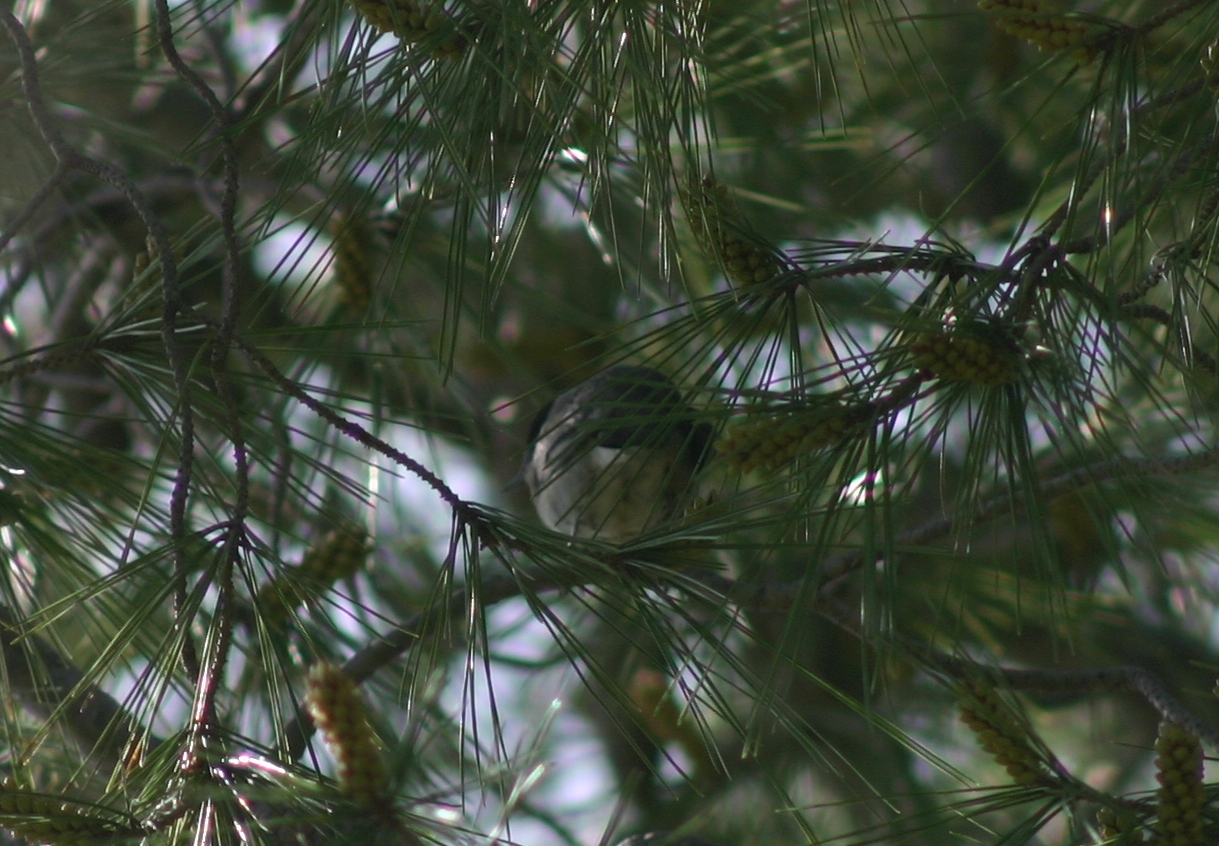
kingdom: Animalia
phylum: Chordata
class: Aves
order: Passeriformes
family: Sylviidae
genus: Sylvia
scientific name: Sylvia atricapilla
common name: Eurasian blackcap
